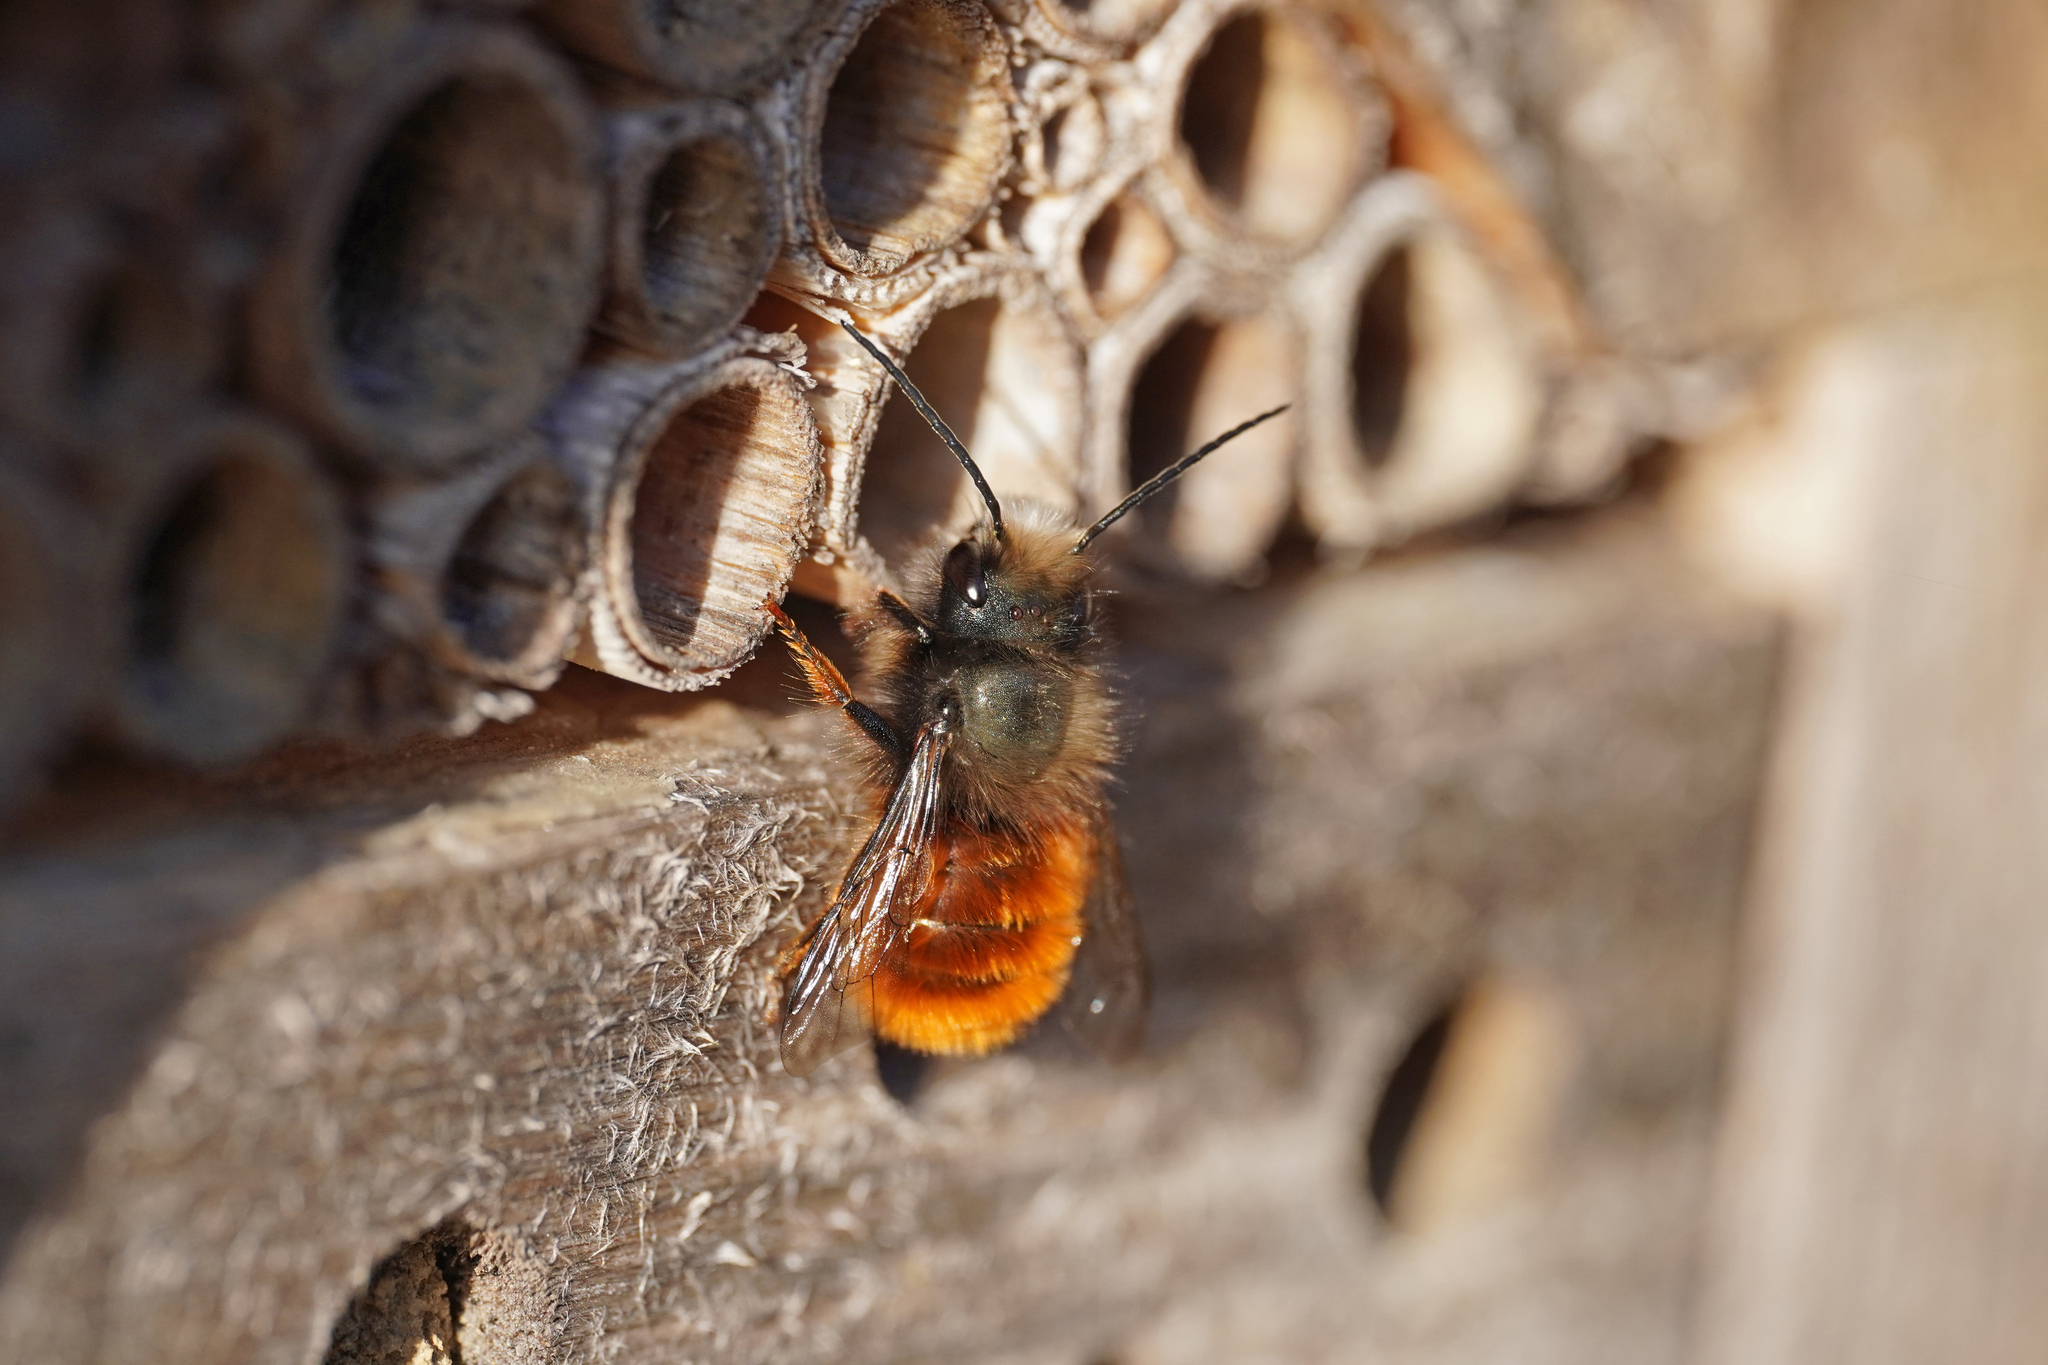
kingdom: Animalia
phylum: Arthropoda
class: Insecta
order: Hymenoptera
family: Megachilidae
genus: Osmia
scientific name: Osmia cornuta
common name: Mason bee
